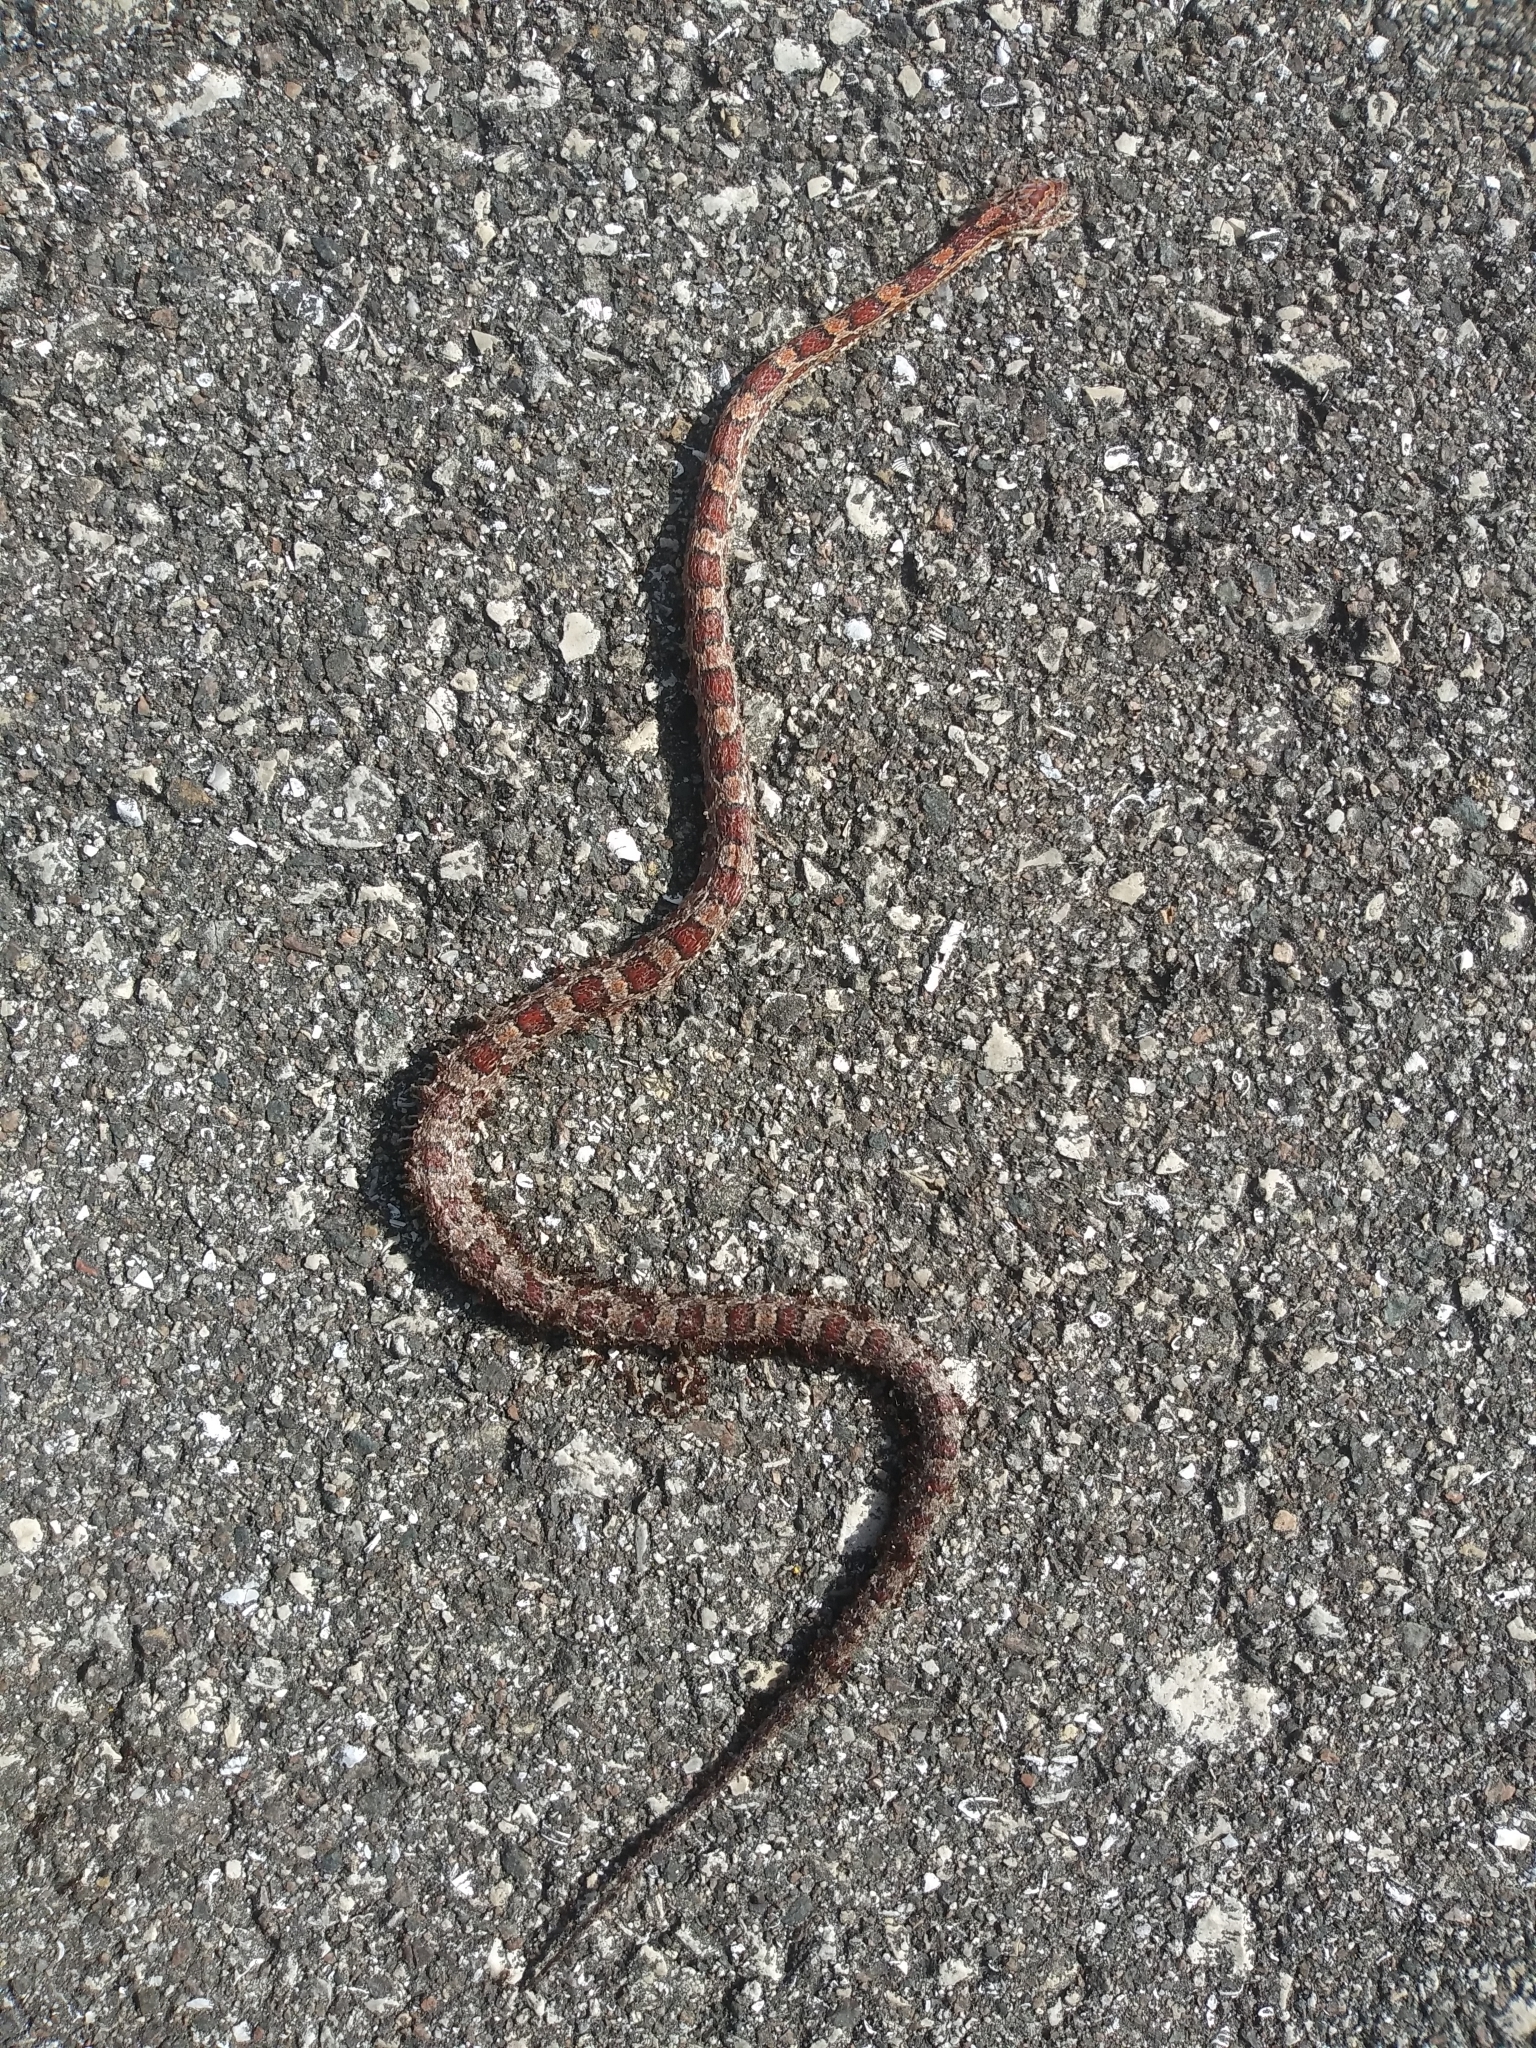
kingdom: Animalia
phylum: Chordata
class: Squamata
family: Colubridae
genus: Pantherophis
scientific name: Pantherophis guttatus
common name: Red cornsnake
